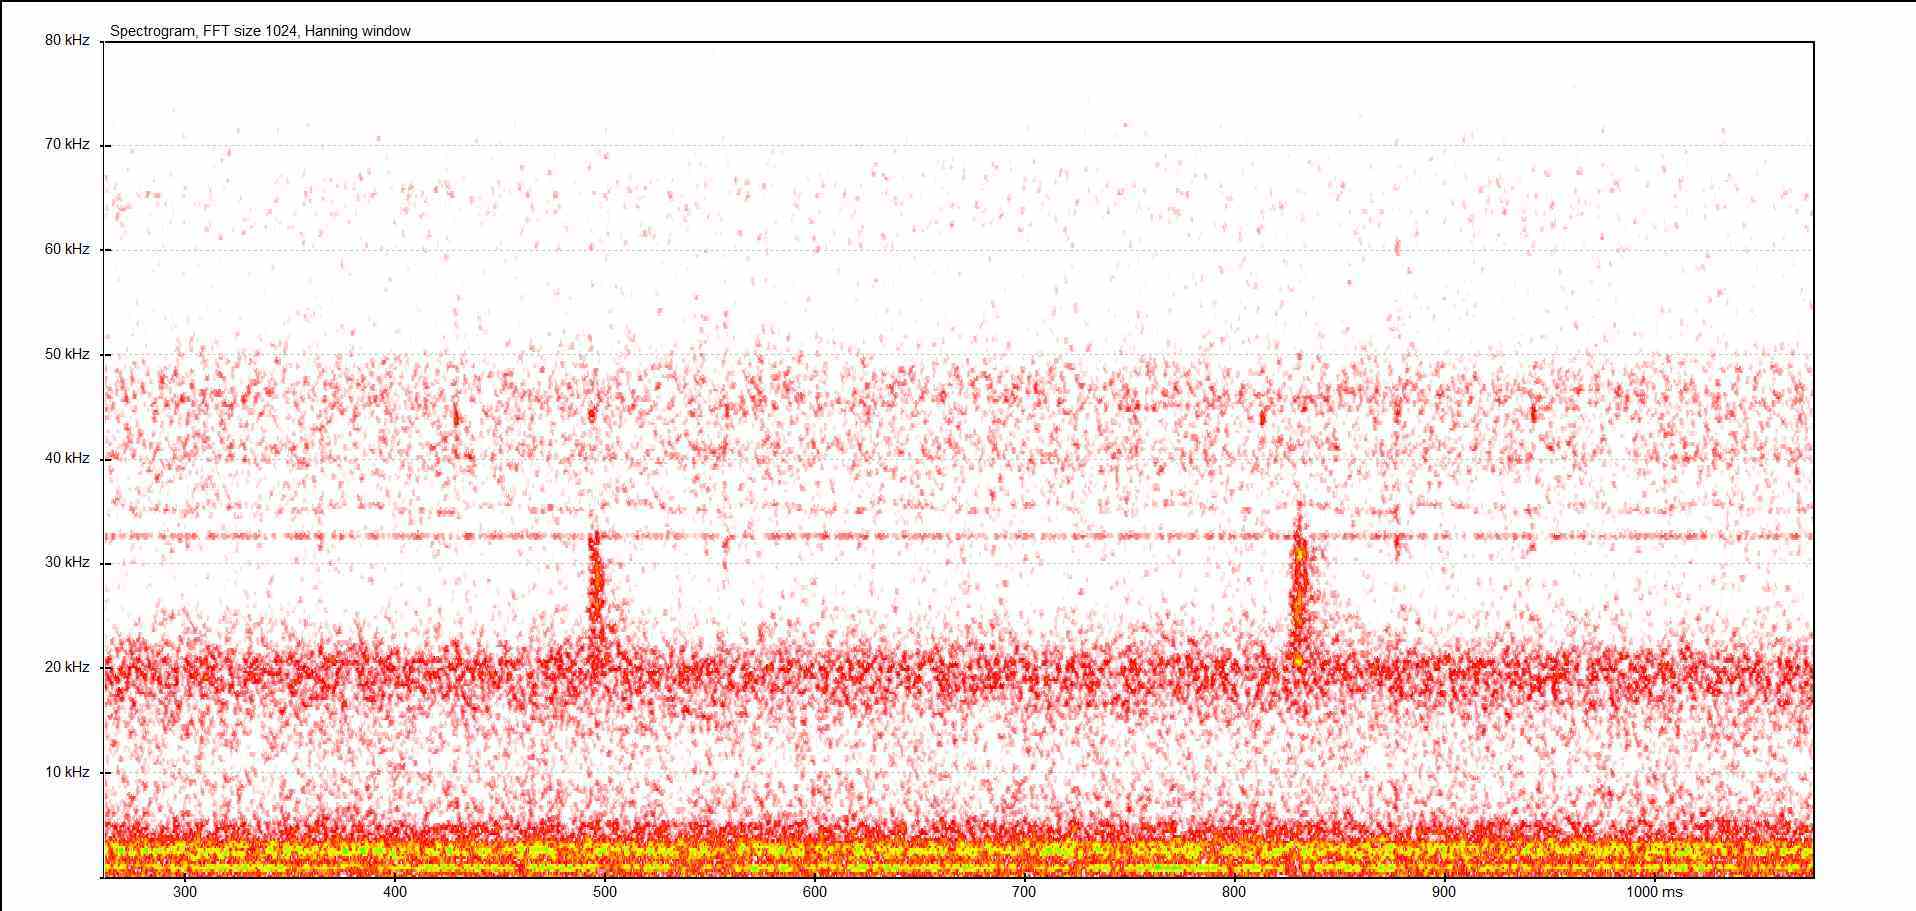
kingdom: Animalia
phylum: Arthropoda
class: Insecta
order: Orthoptera
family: Tettigoniidae
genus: Barbitistes
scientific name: Barbitistes serricauda
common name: Saw-tailed bush-cricket
